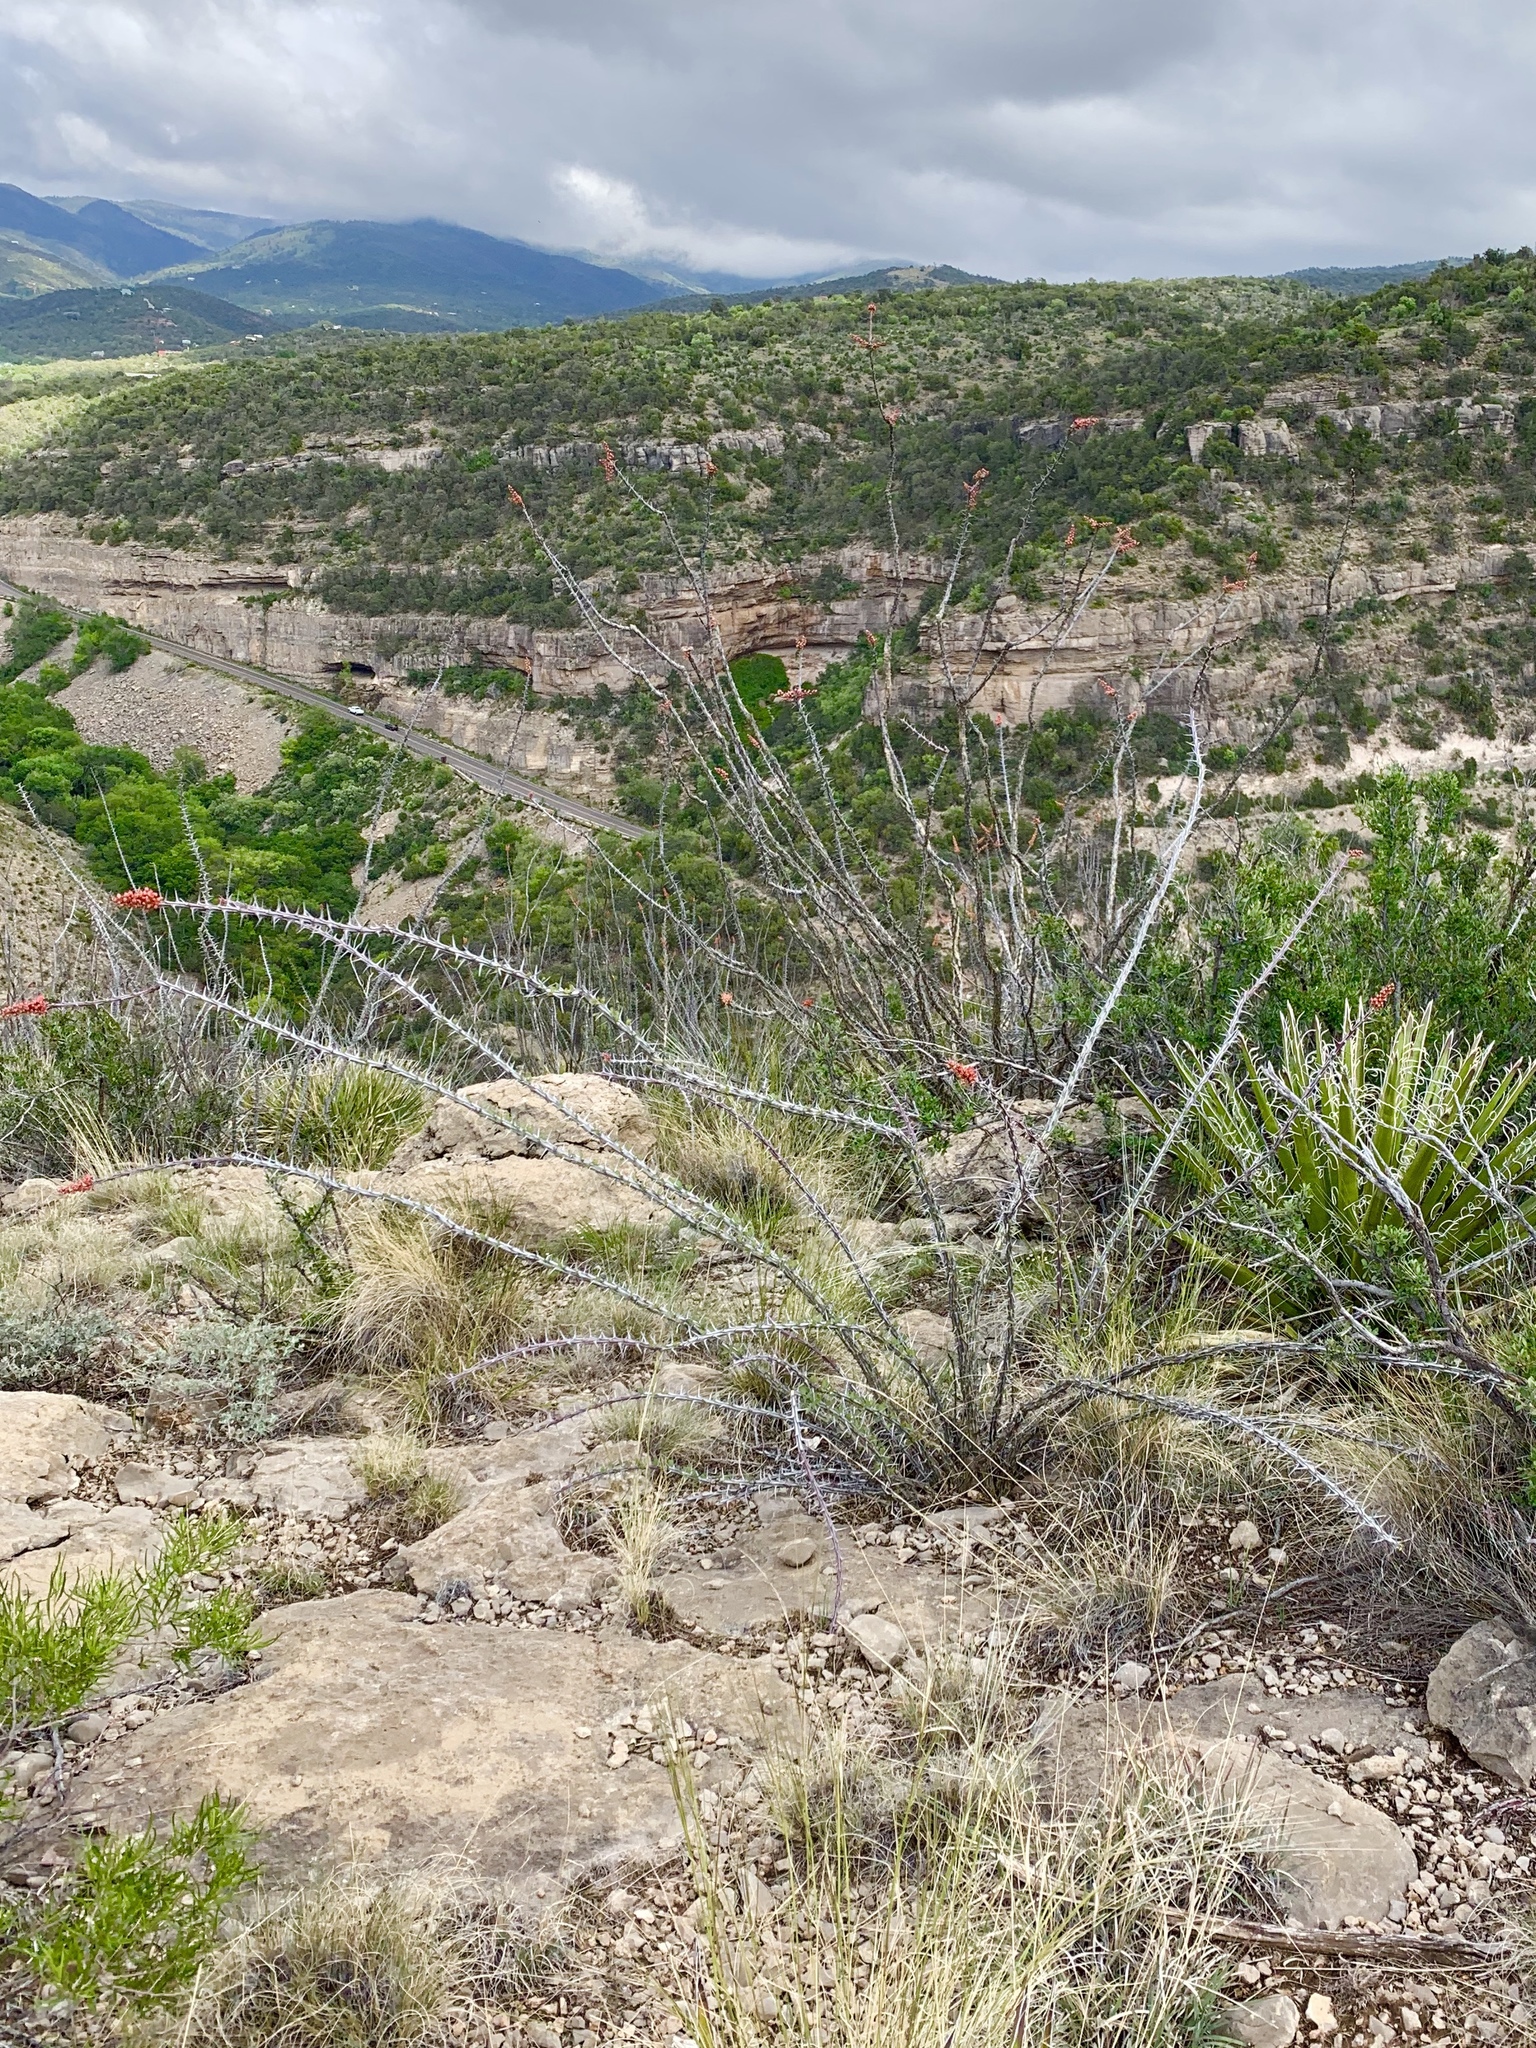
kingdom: Plantae
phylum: Tracheophyta
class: Magnoliopsida
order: Ericales
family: Fouquieriaceae
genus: Fouquieria
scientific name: Fouquieria splendens
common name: Vine-cactus
